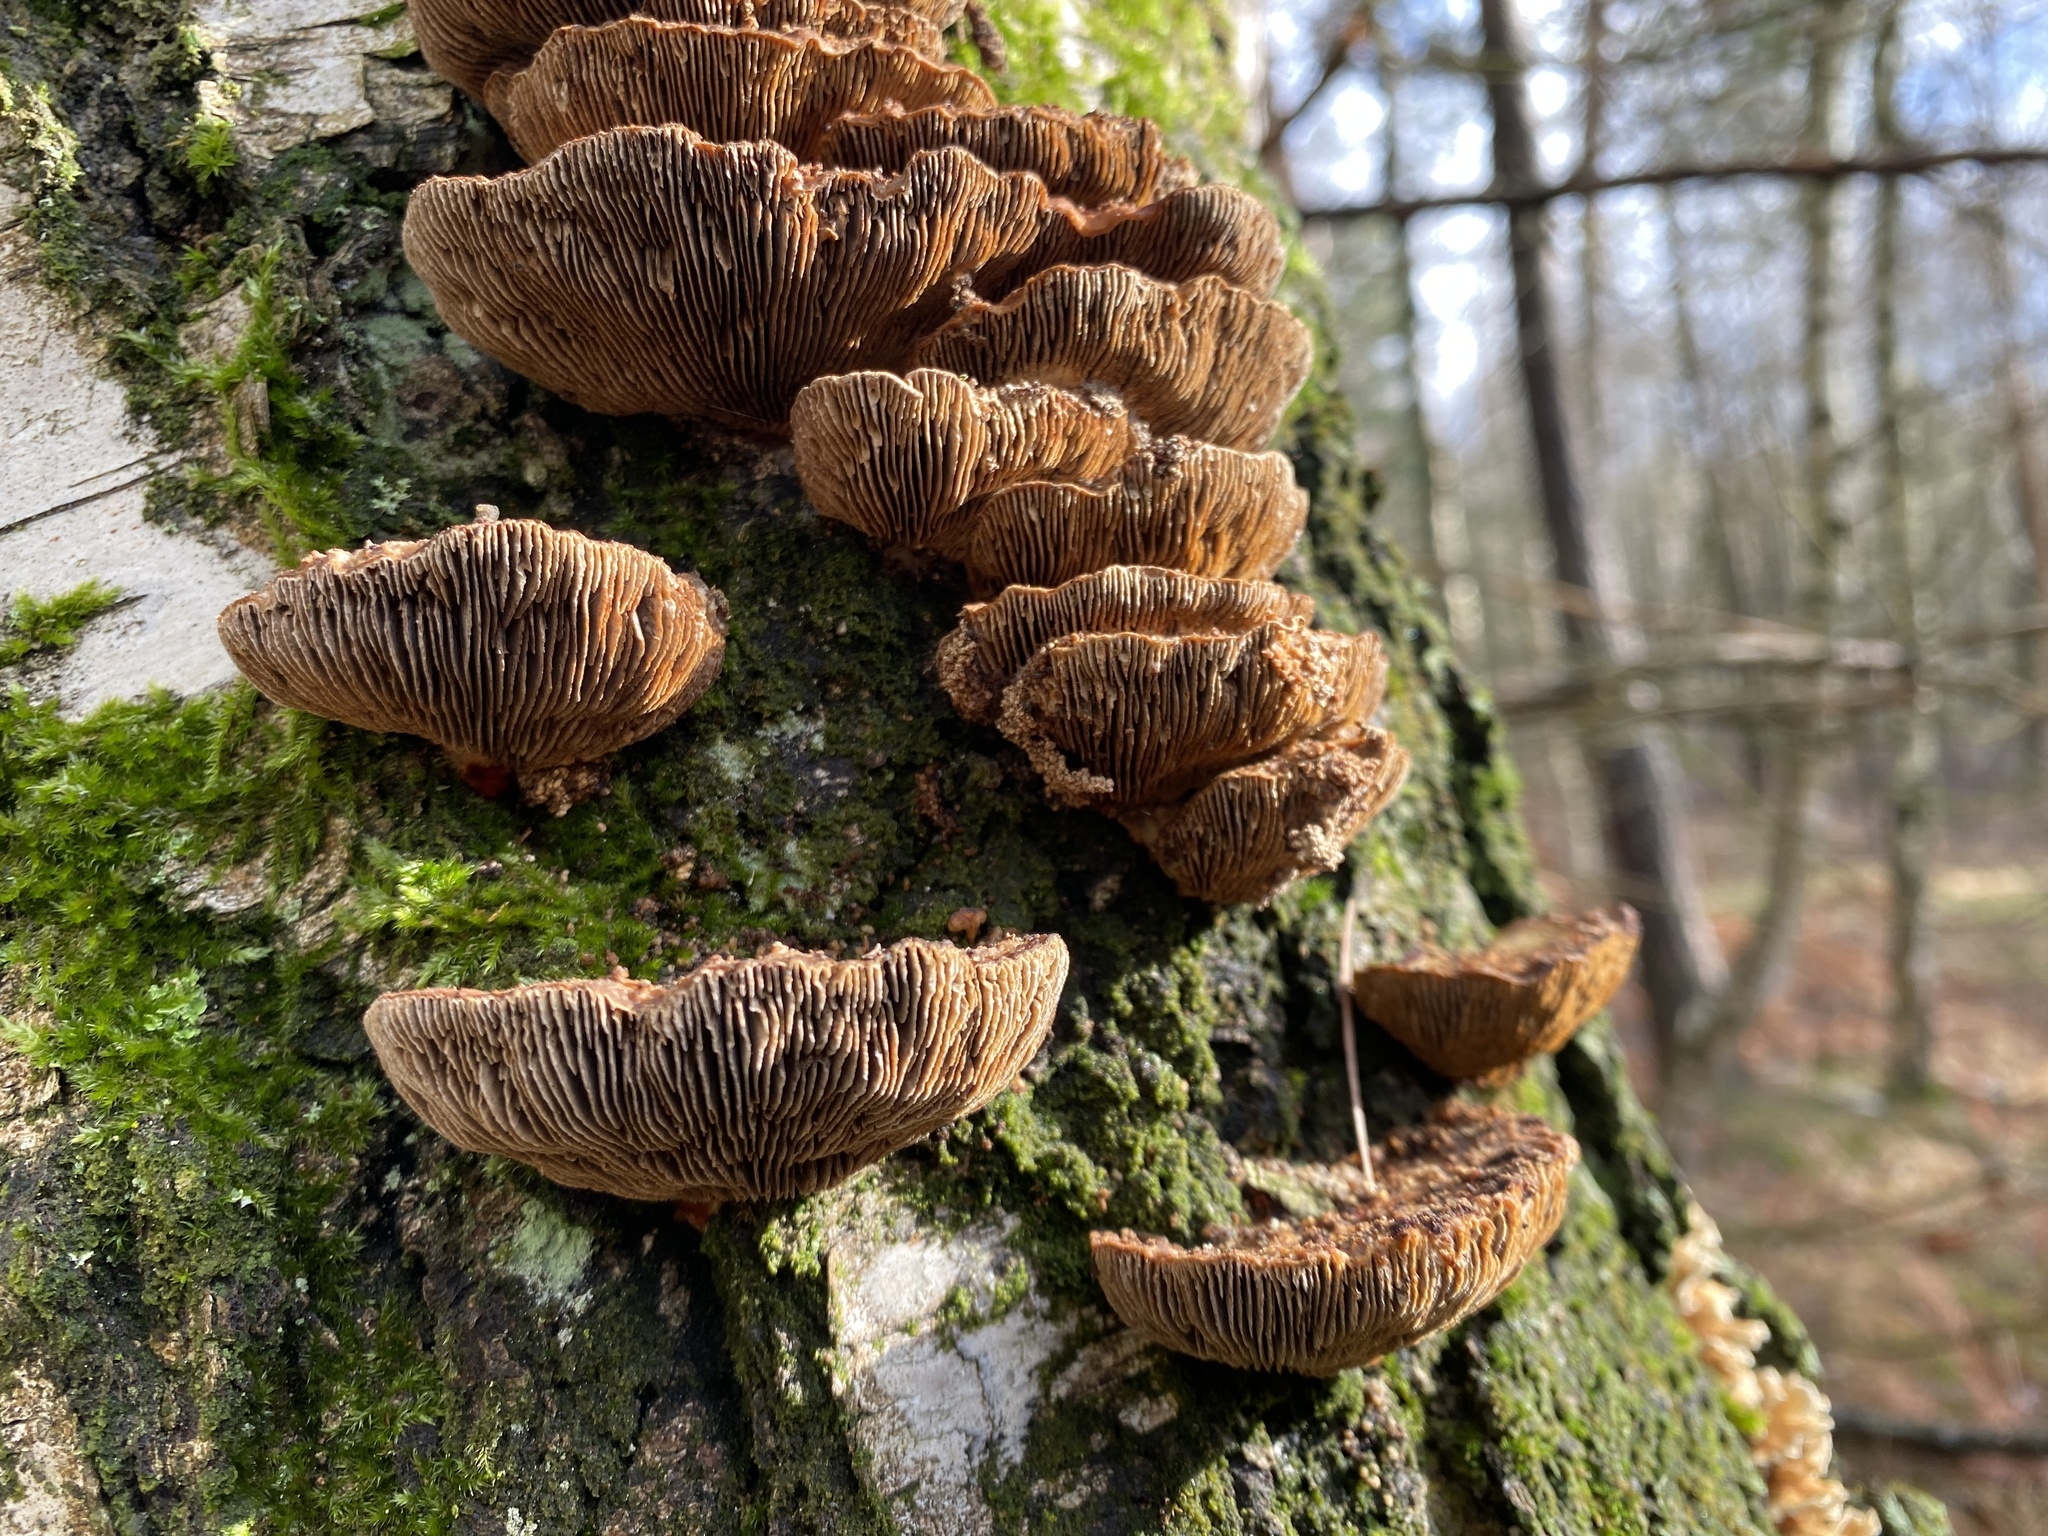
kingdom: Fungi
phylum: Basidiomycota
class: Agaricomycetes
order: Polyporales
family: Polyporaceae
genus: Daedaleopsis
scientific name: Daedaleopsis tricolor
